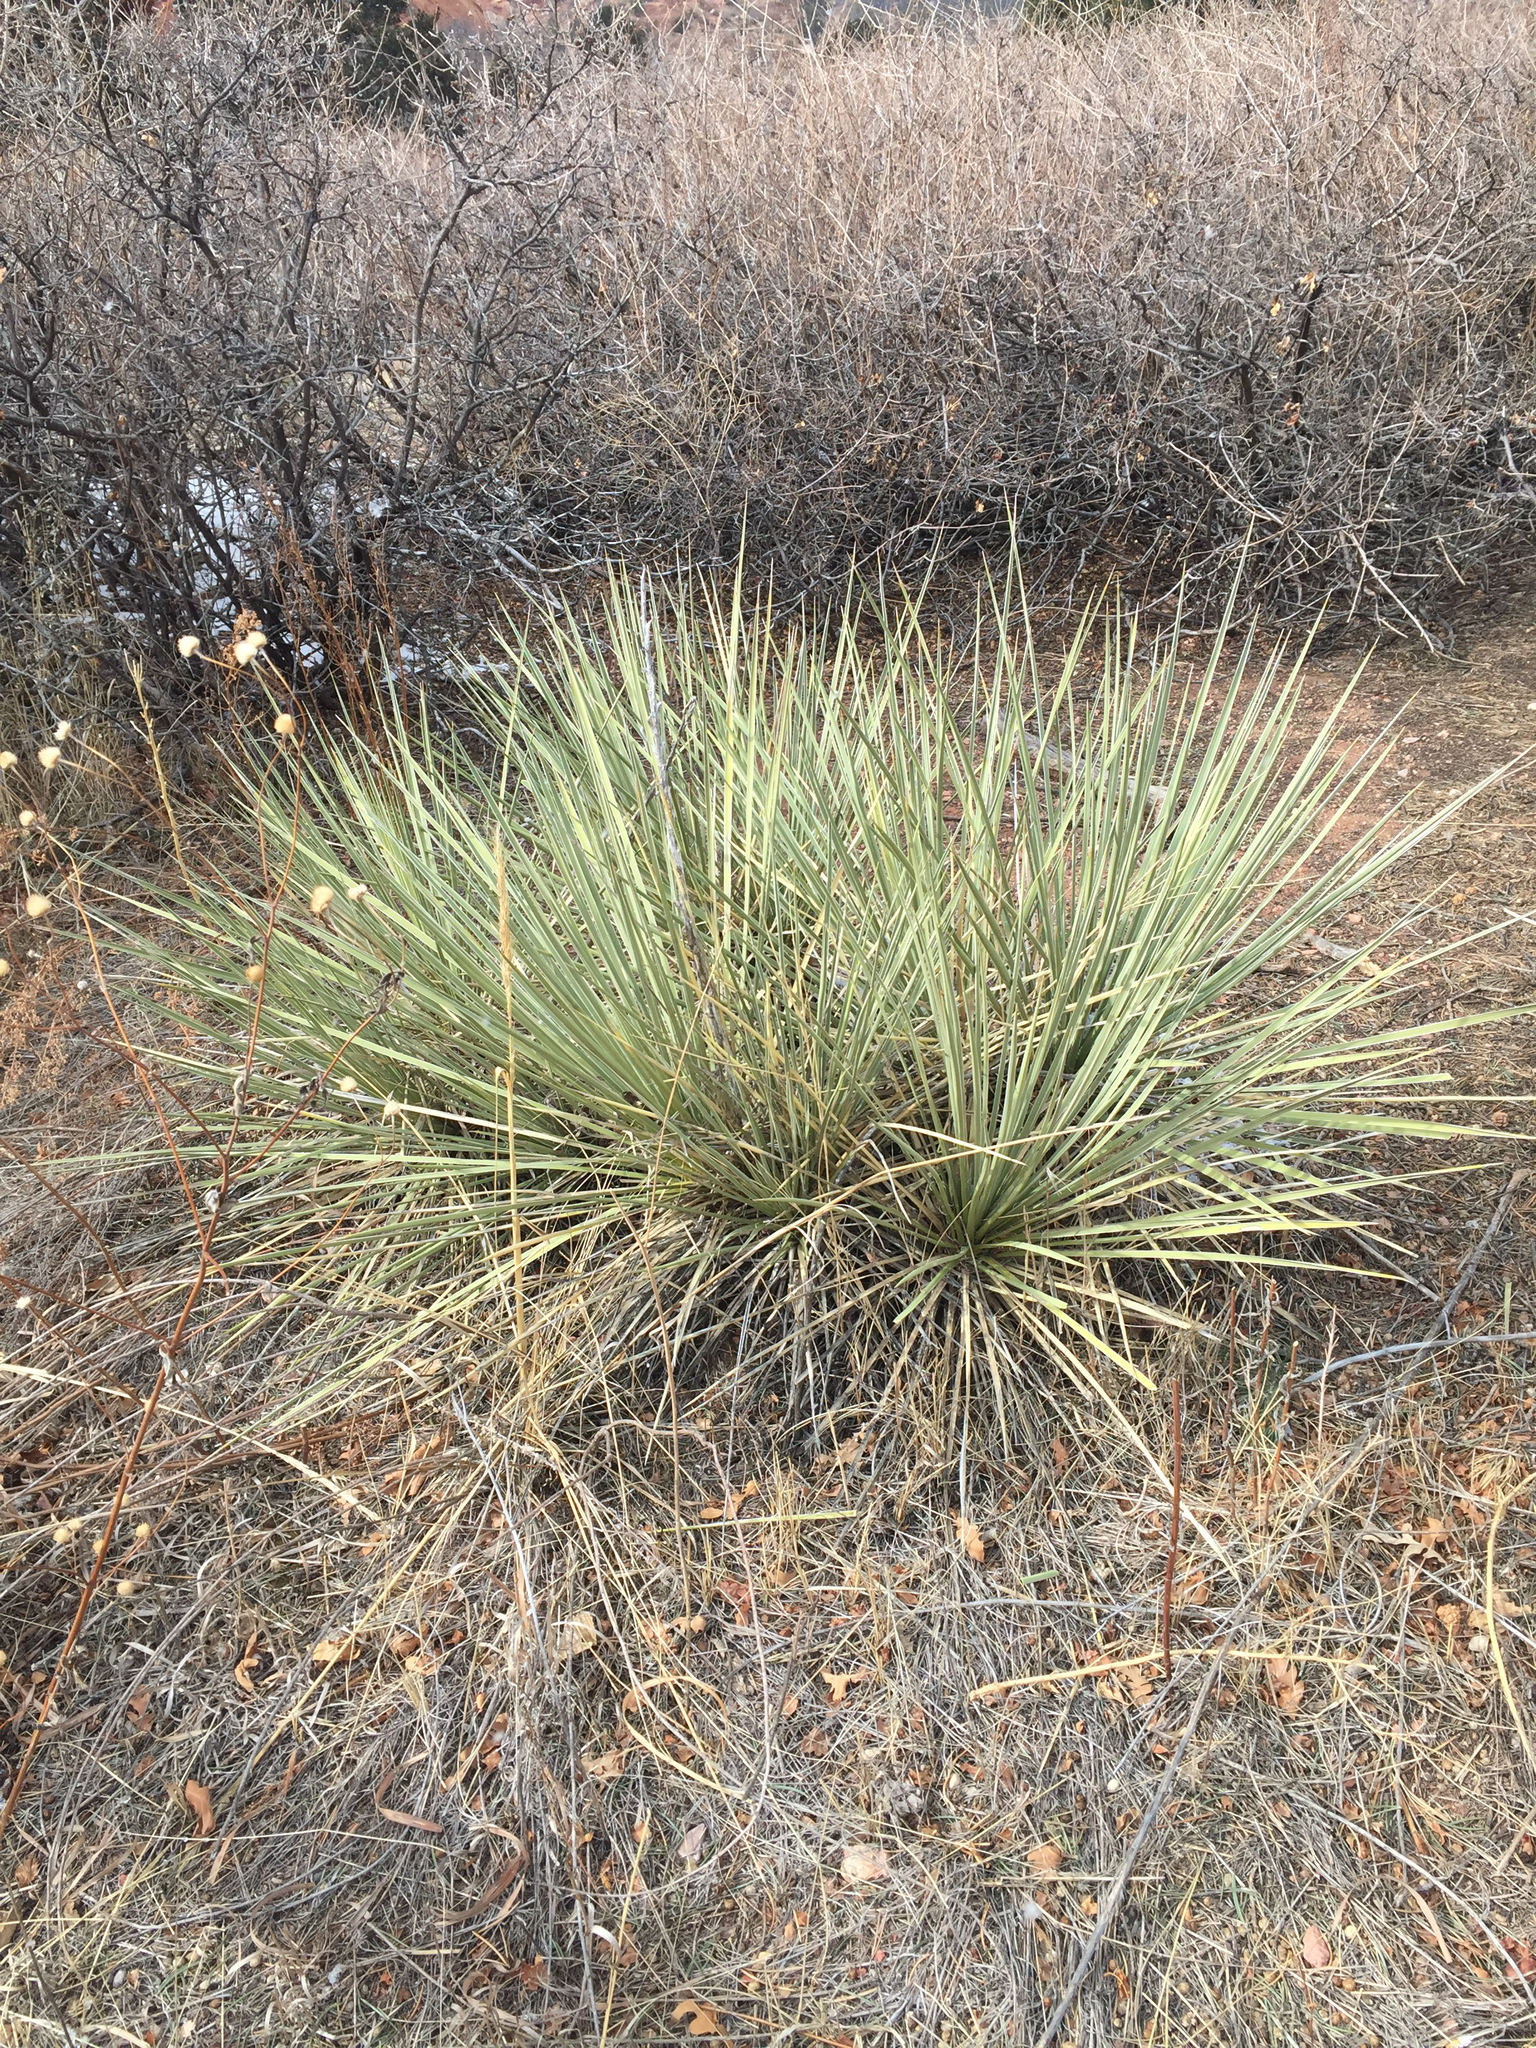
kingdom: Plantae
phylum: Tracheophyta
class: Liliopsida
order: Asparagales
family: Asparagaceae
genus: Yucca
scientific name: Yucca glauca
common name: Great plains yucca
